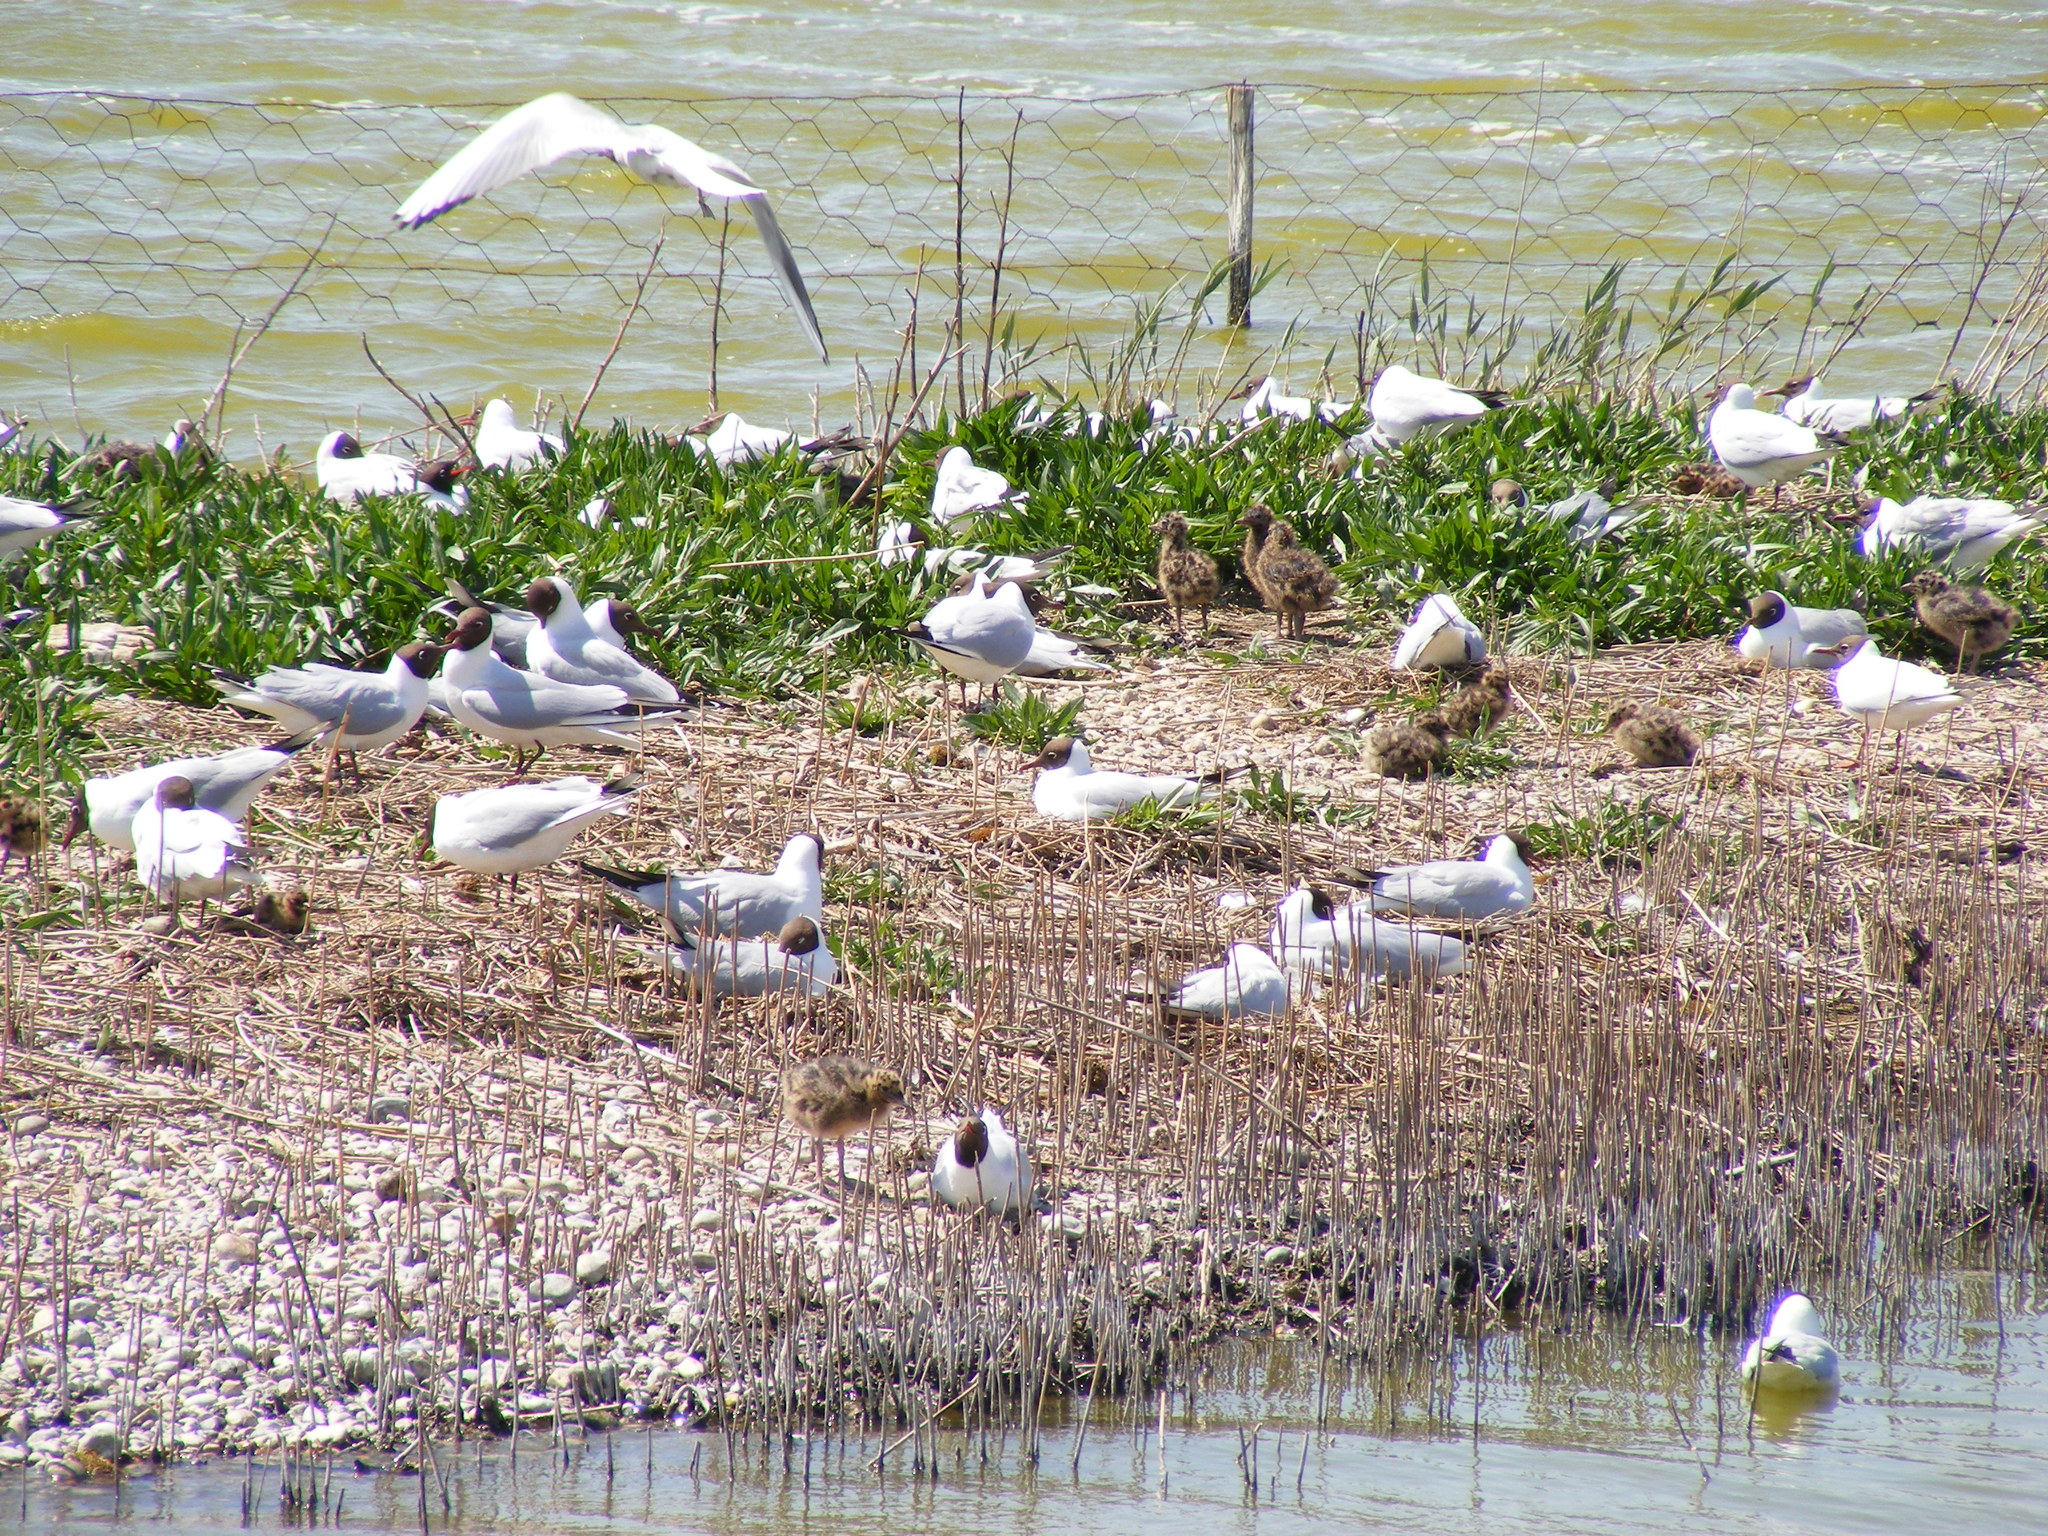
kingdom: Animalia
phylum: Chordata
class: Aves
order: Charadriiformes
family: Laridae
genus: Chroicocephalus
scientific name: Chroicocephalus ridibundus
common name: Black-headed gull
